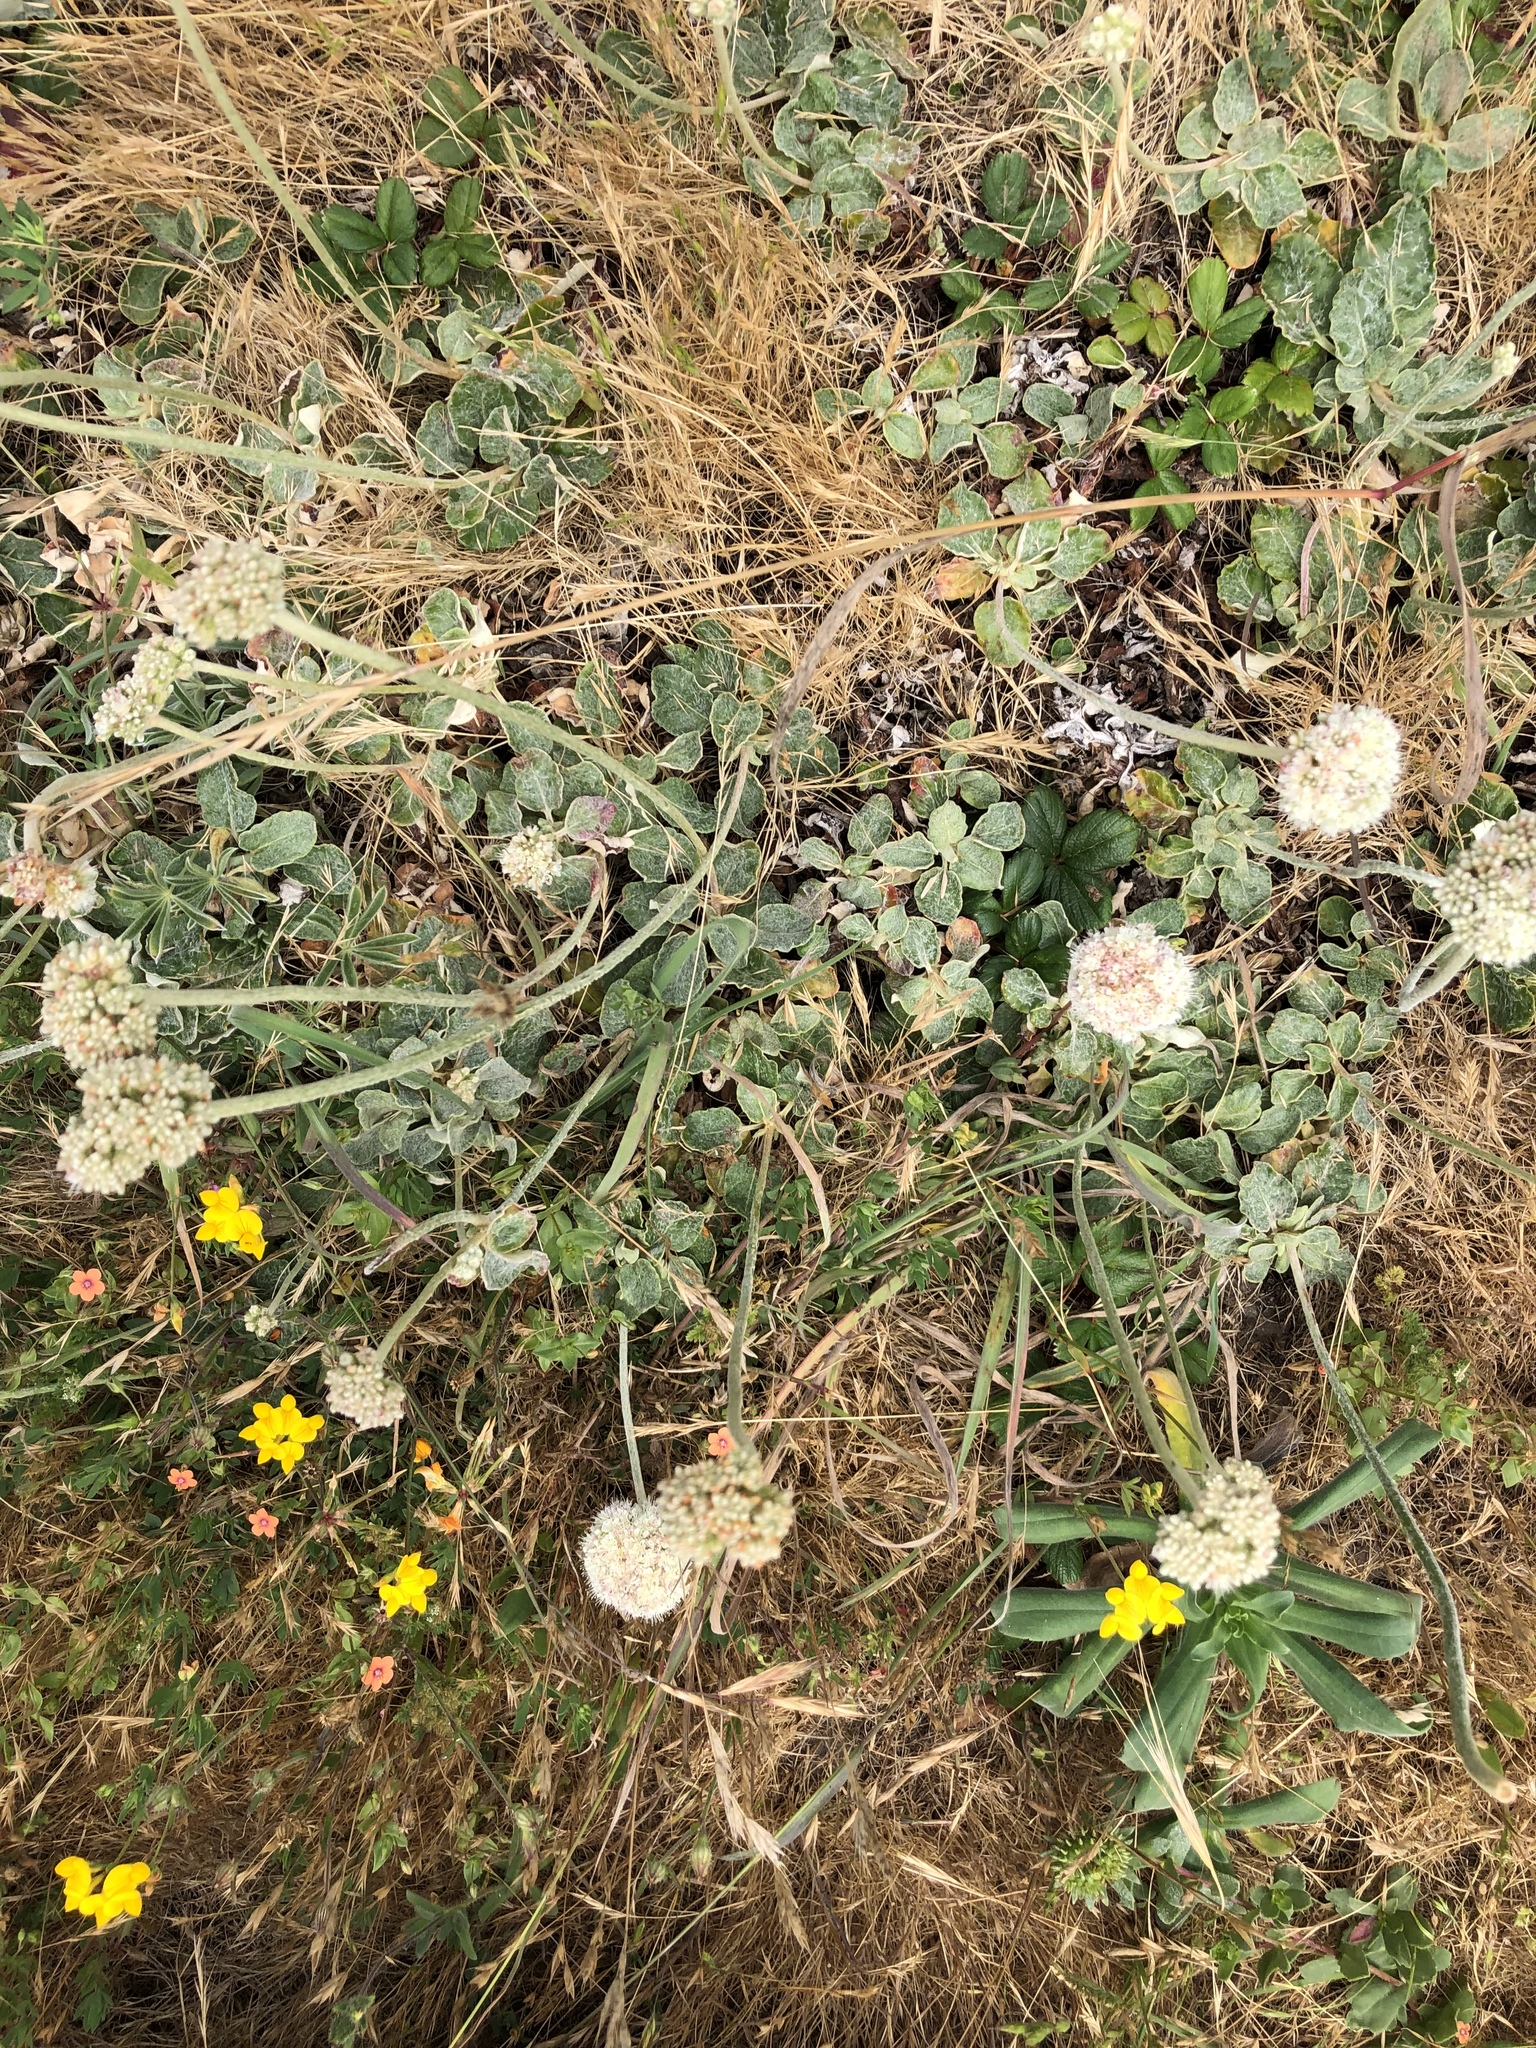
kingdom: Plantae
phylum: Tracheophyta
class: Magnoliopsida
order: Caryophyllales
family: Polygonaceae
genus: Eriogonum
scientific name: Eriogonum latifolium
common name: Seaside wild buckwheat
